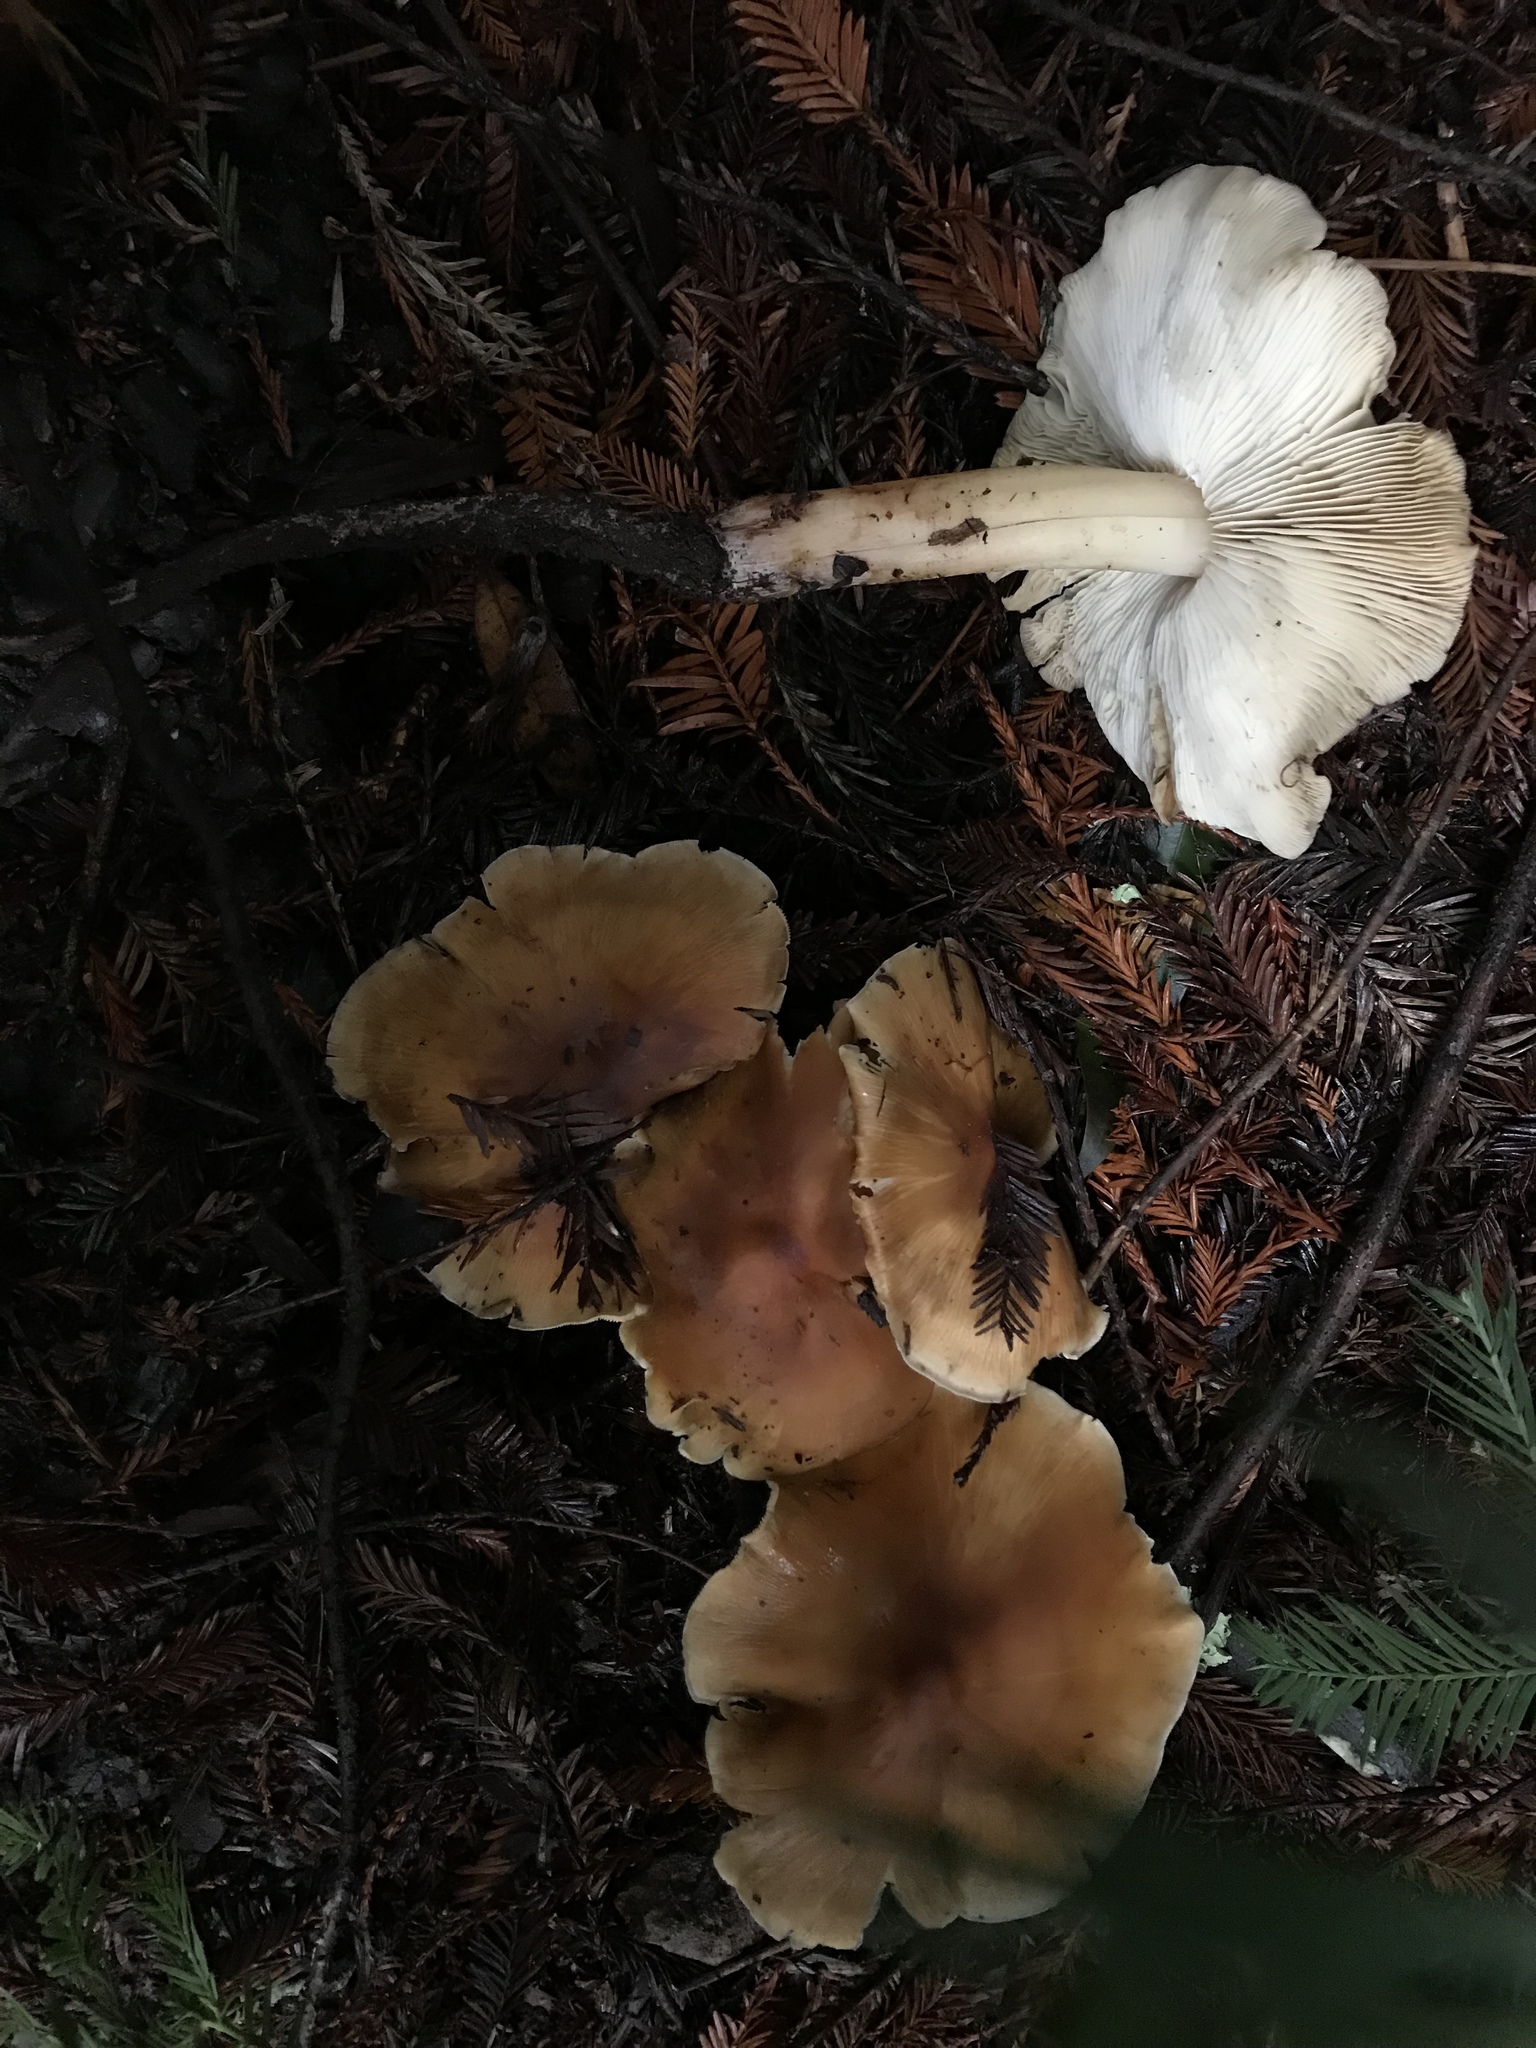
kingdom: Fungi
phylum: Basidiomycota
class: Agaricomycetes
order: Agaricales
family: Tricholomataceae
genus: Caulorhiza
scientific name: Caulorhiza umbonata
